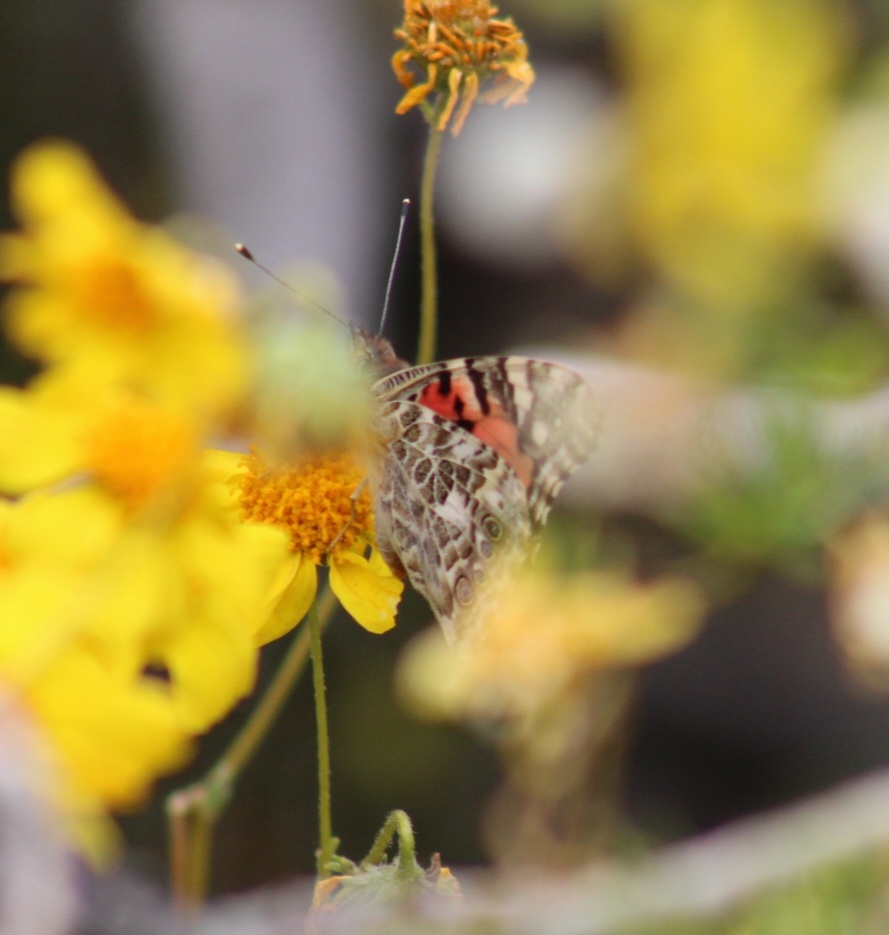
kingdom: Animalia
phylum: Arthropoda
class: Insecta
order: Lepidoptera
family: Nymphalidae
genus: Vanessa
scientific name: Vanessa cardui
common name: Painted lady
